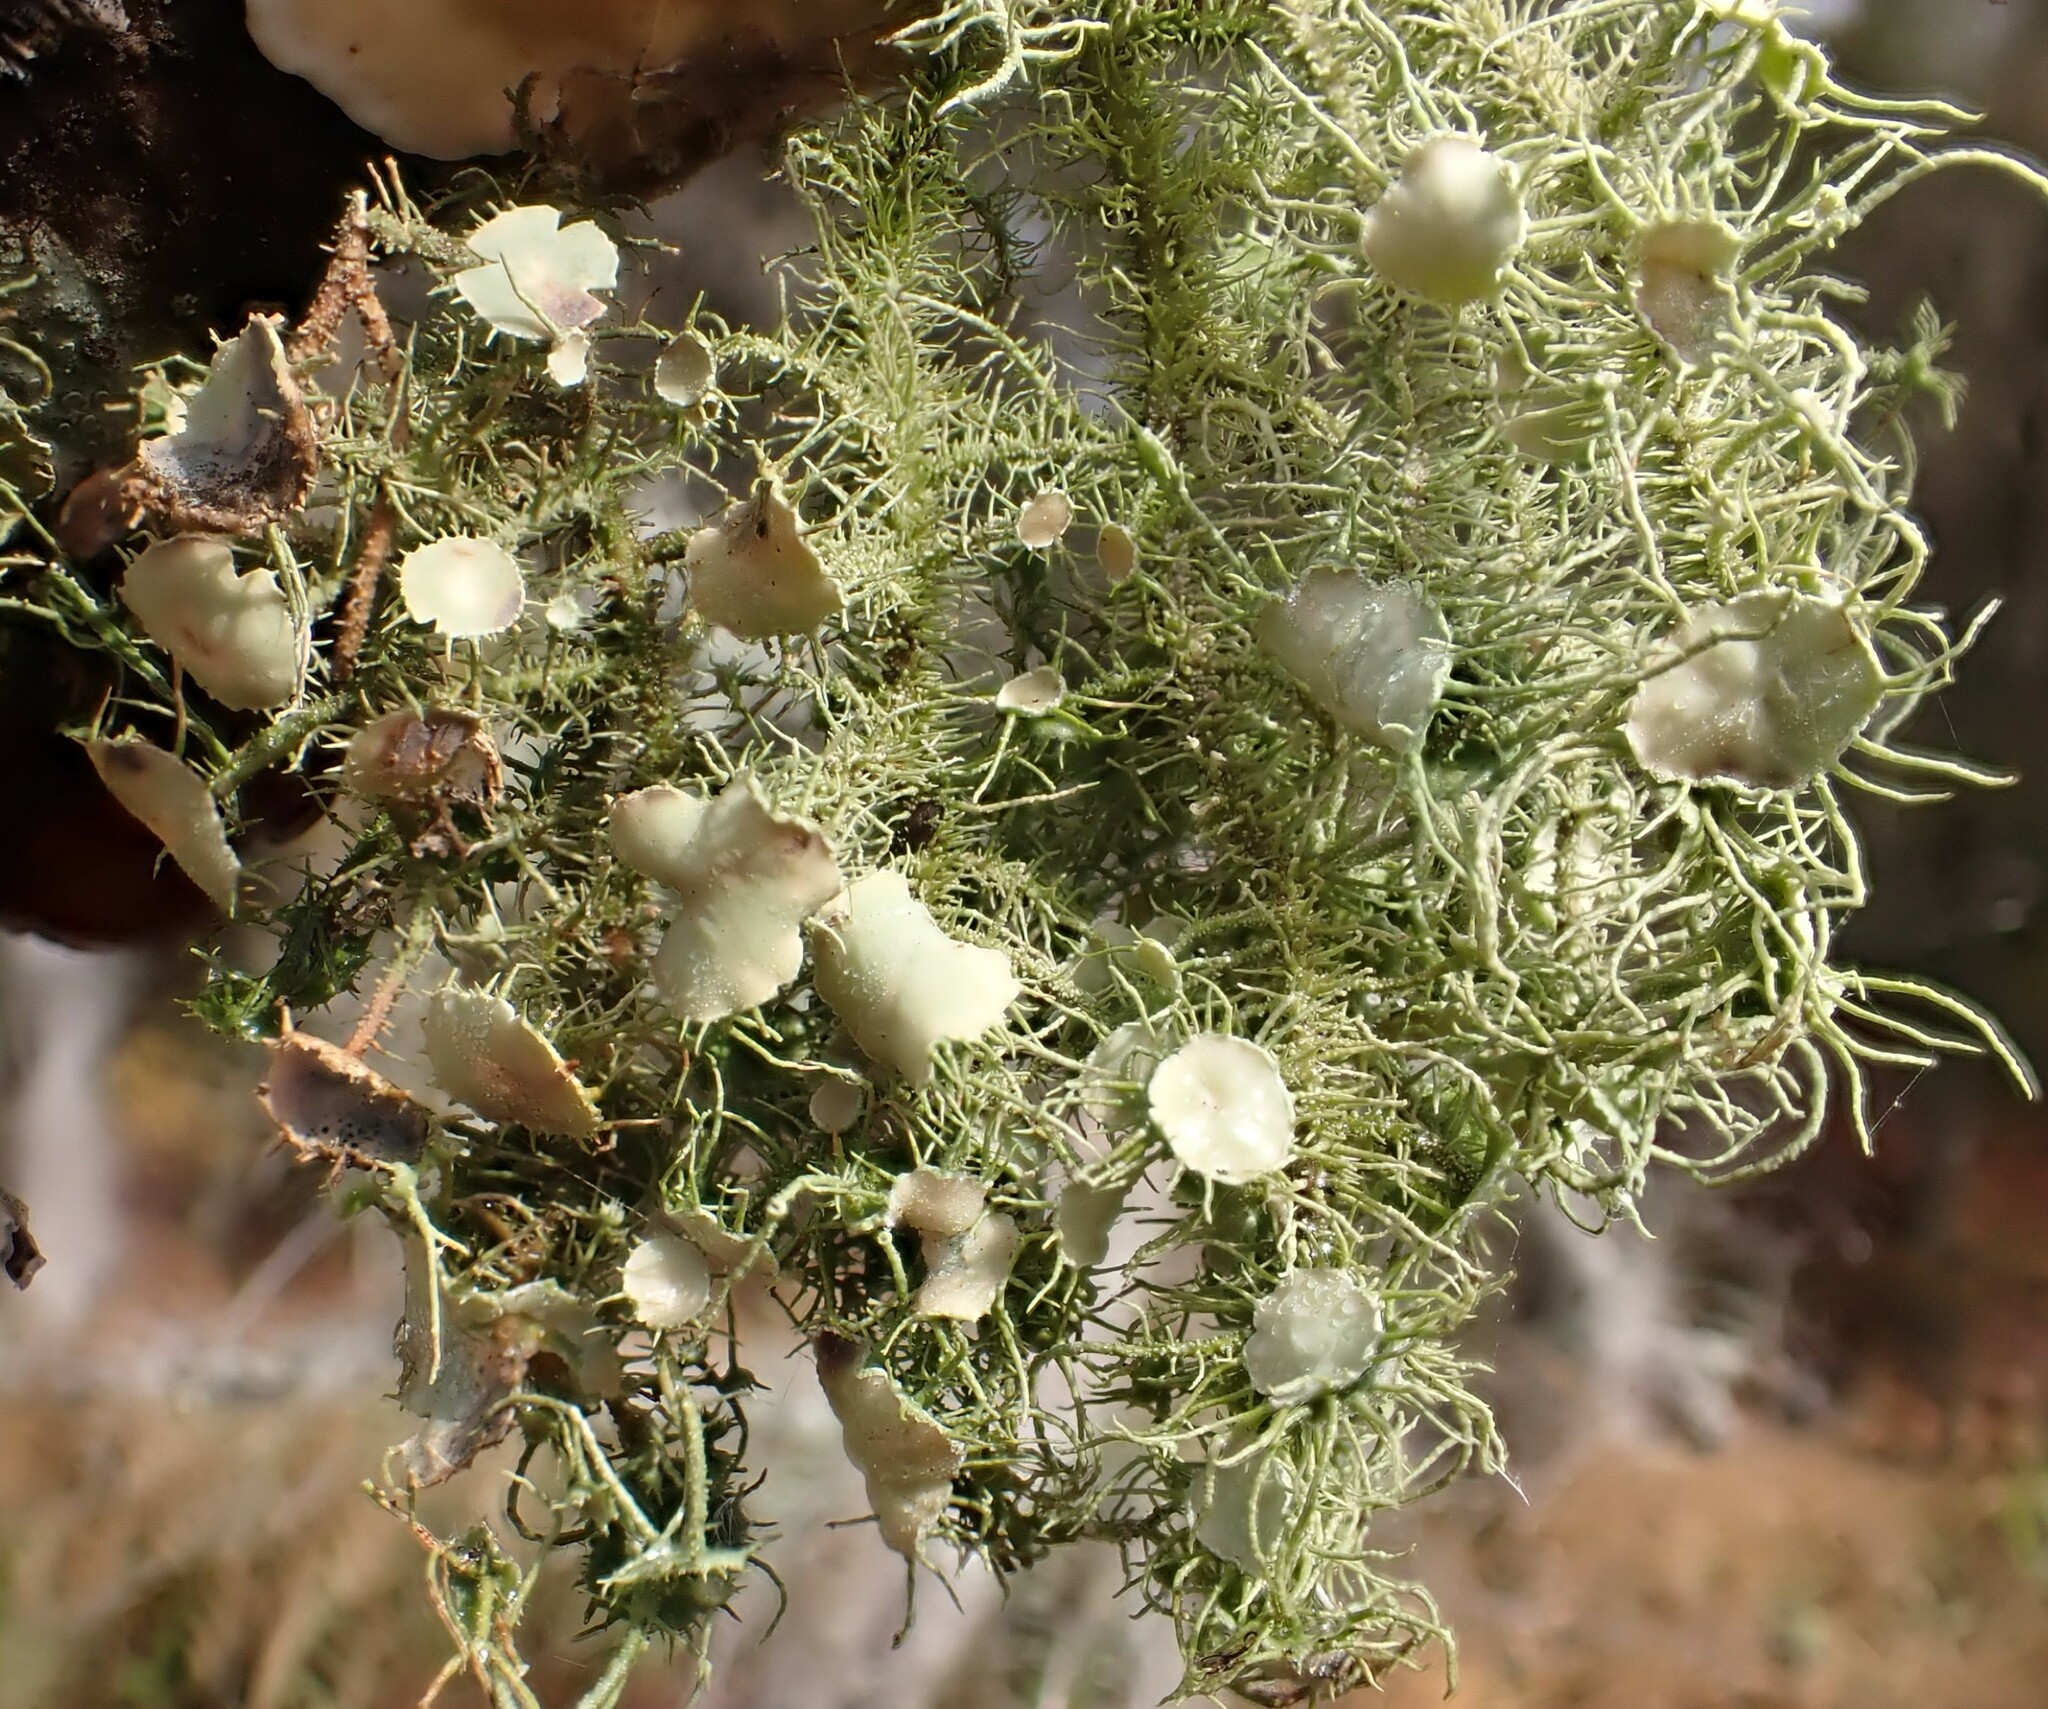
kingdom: Fungi
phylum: Ascomycota
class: Lecanoromycetes
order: Lecanorales
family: Parmeliaceae
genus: Usnea
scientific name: Usnea strigosa
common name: Bushy beard lichen
